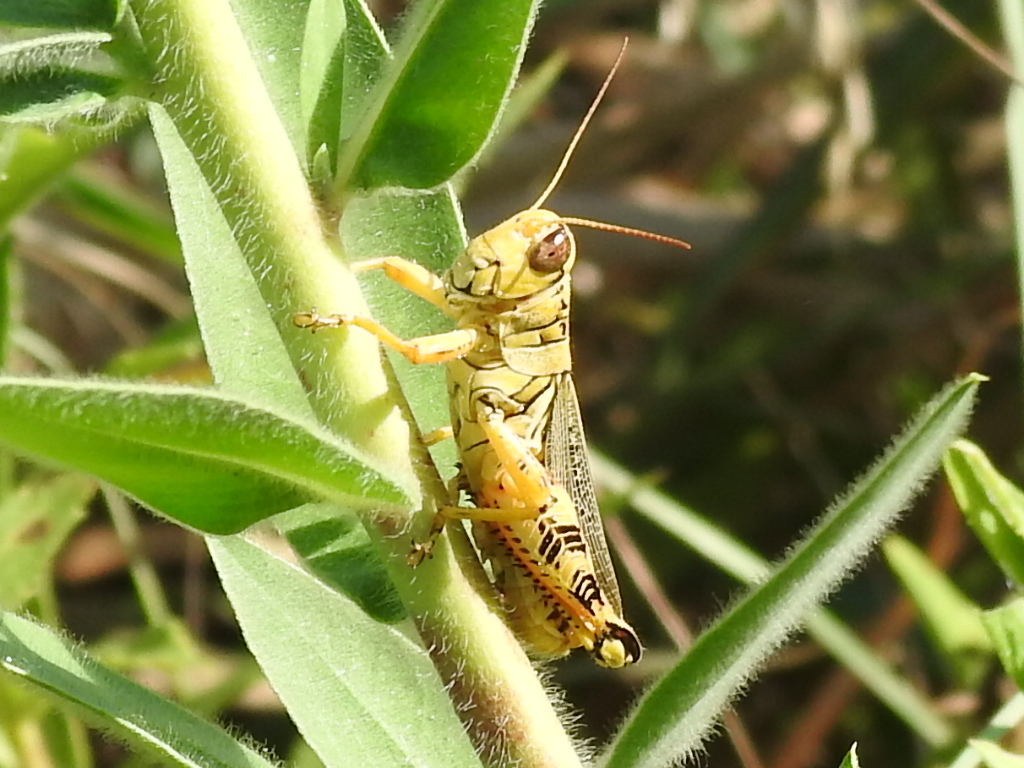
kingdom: Animalia
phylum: Arthropoda
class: Insecta
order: Orthoptera
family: Acrididae
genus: Melanoplus
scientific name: Melanoplus ponderosus
